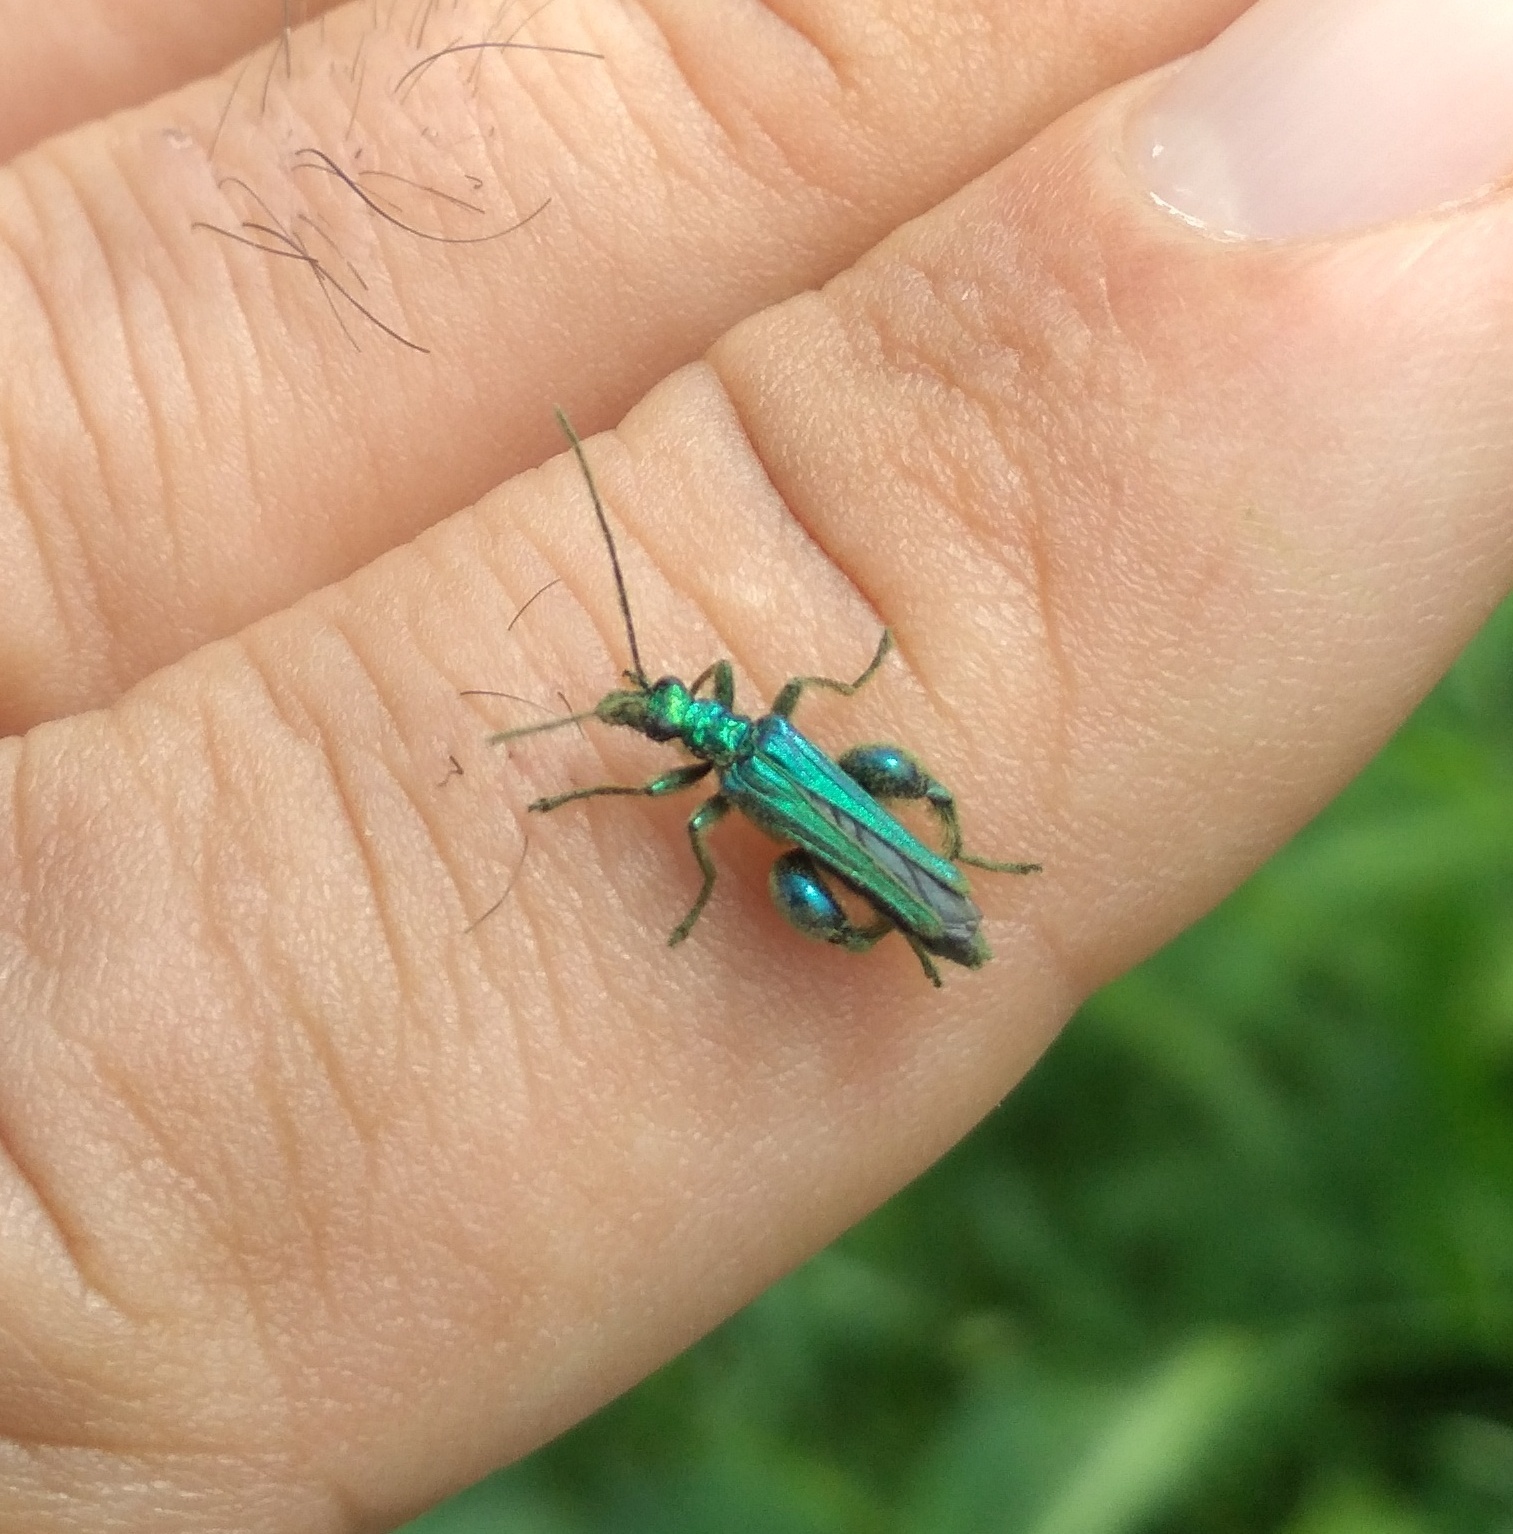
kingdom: Animalia
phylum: Arthropoda
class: Insecta
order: Coleoptera
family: Oedemeridae
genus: Oedemera
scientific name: Oedemera nobilis
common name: Swollen-thighed beetle
